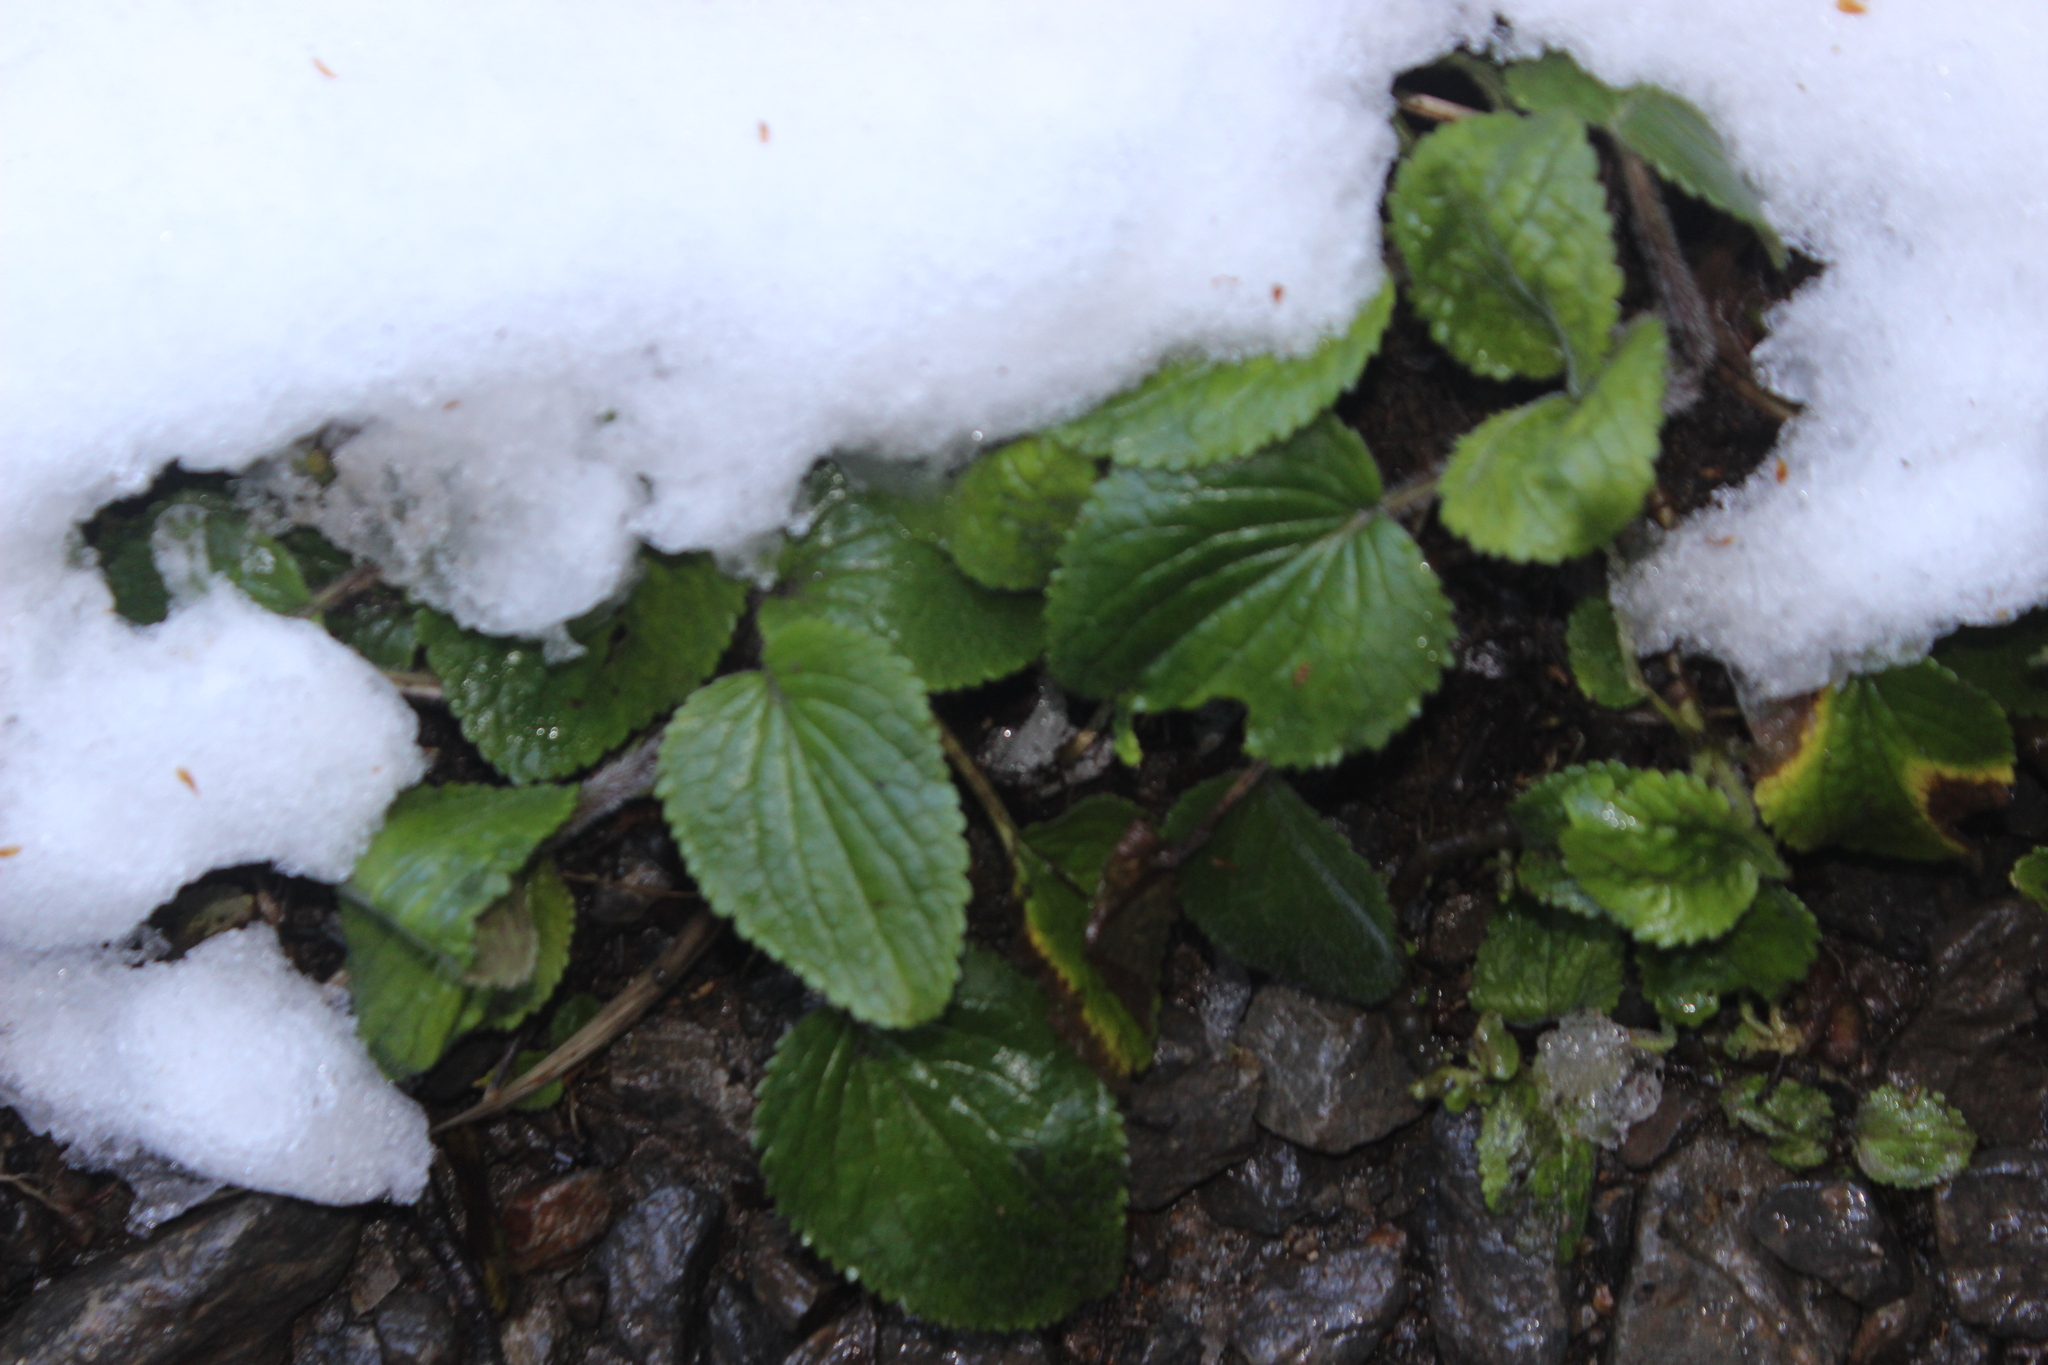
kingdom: Plantae
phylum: Tracheophyta
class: Magnoliopsida
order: Lamiales
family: Plantaginaceae
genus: Ourisia
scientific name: Ourisia macrophylla
